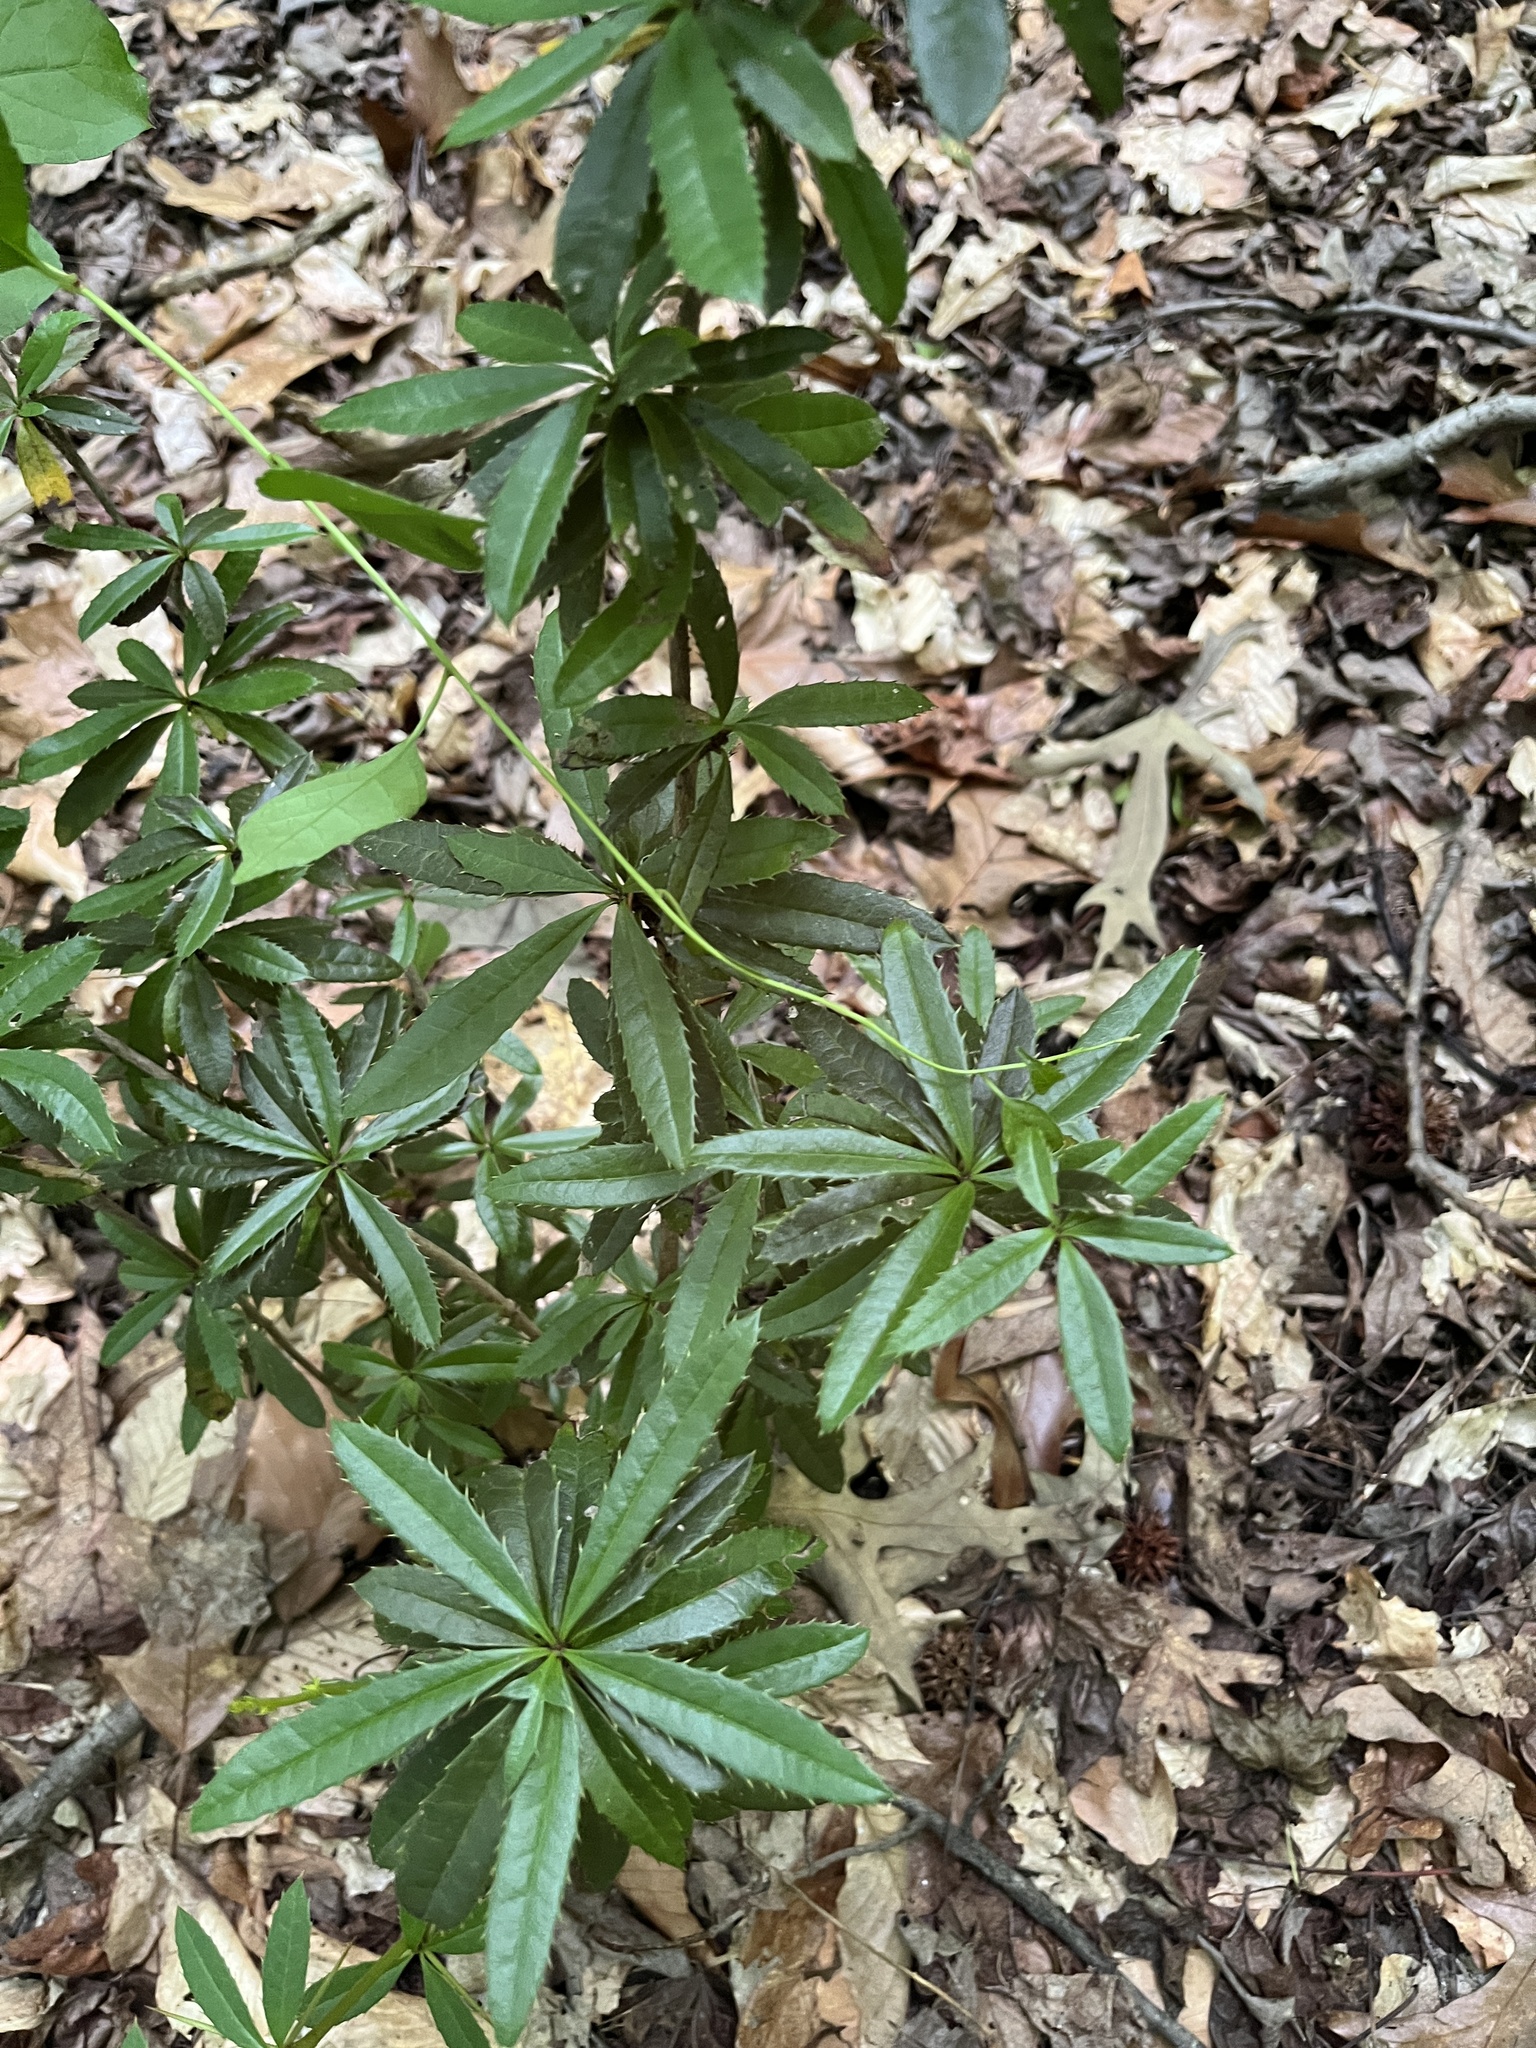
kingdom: Plantae
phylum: Tracheophyta
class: Magnoliopsida
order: Ranunculales
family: Berberidaceae
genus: Berberis
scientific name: Berberis julianae
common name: Wintergreen barberry
